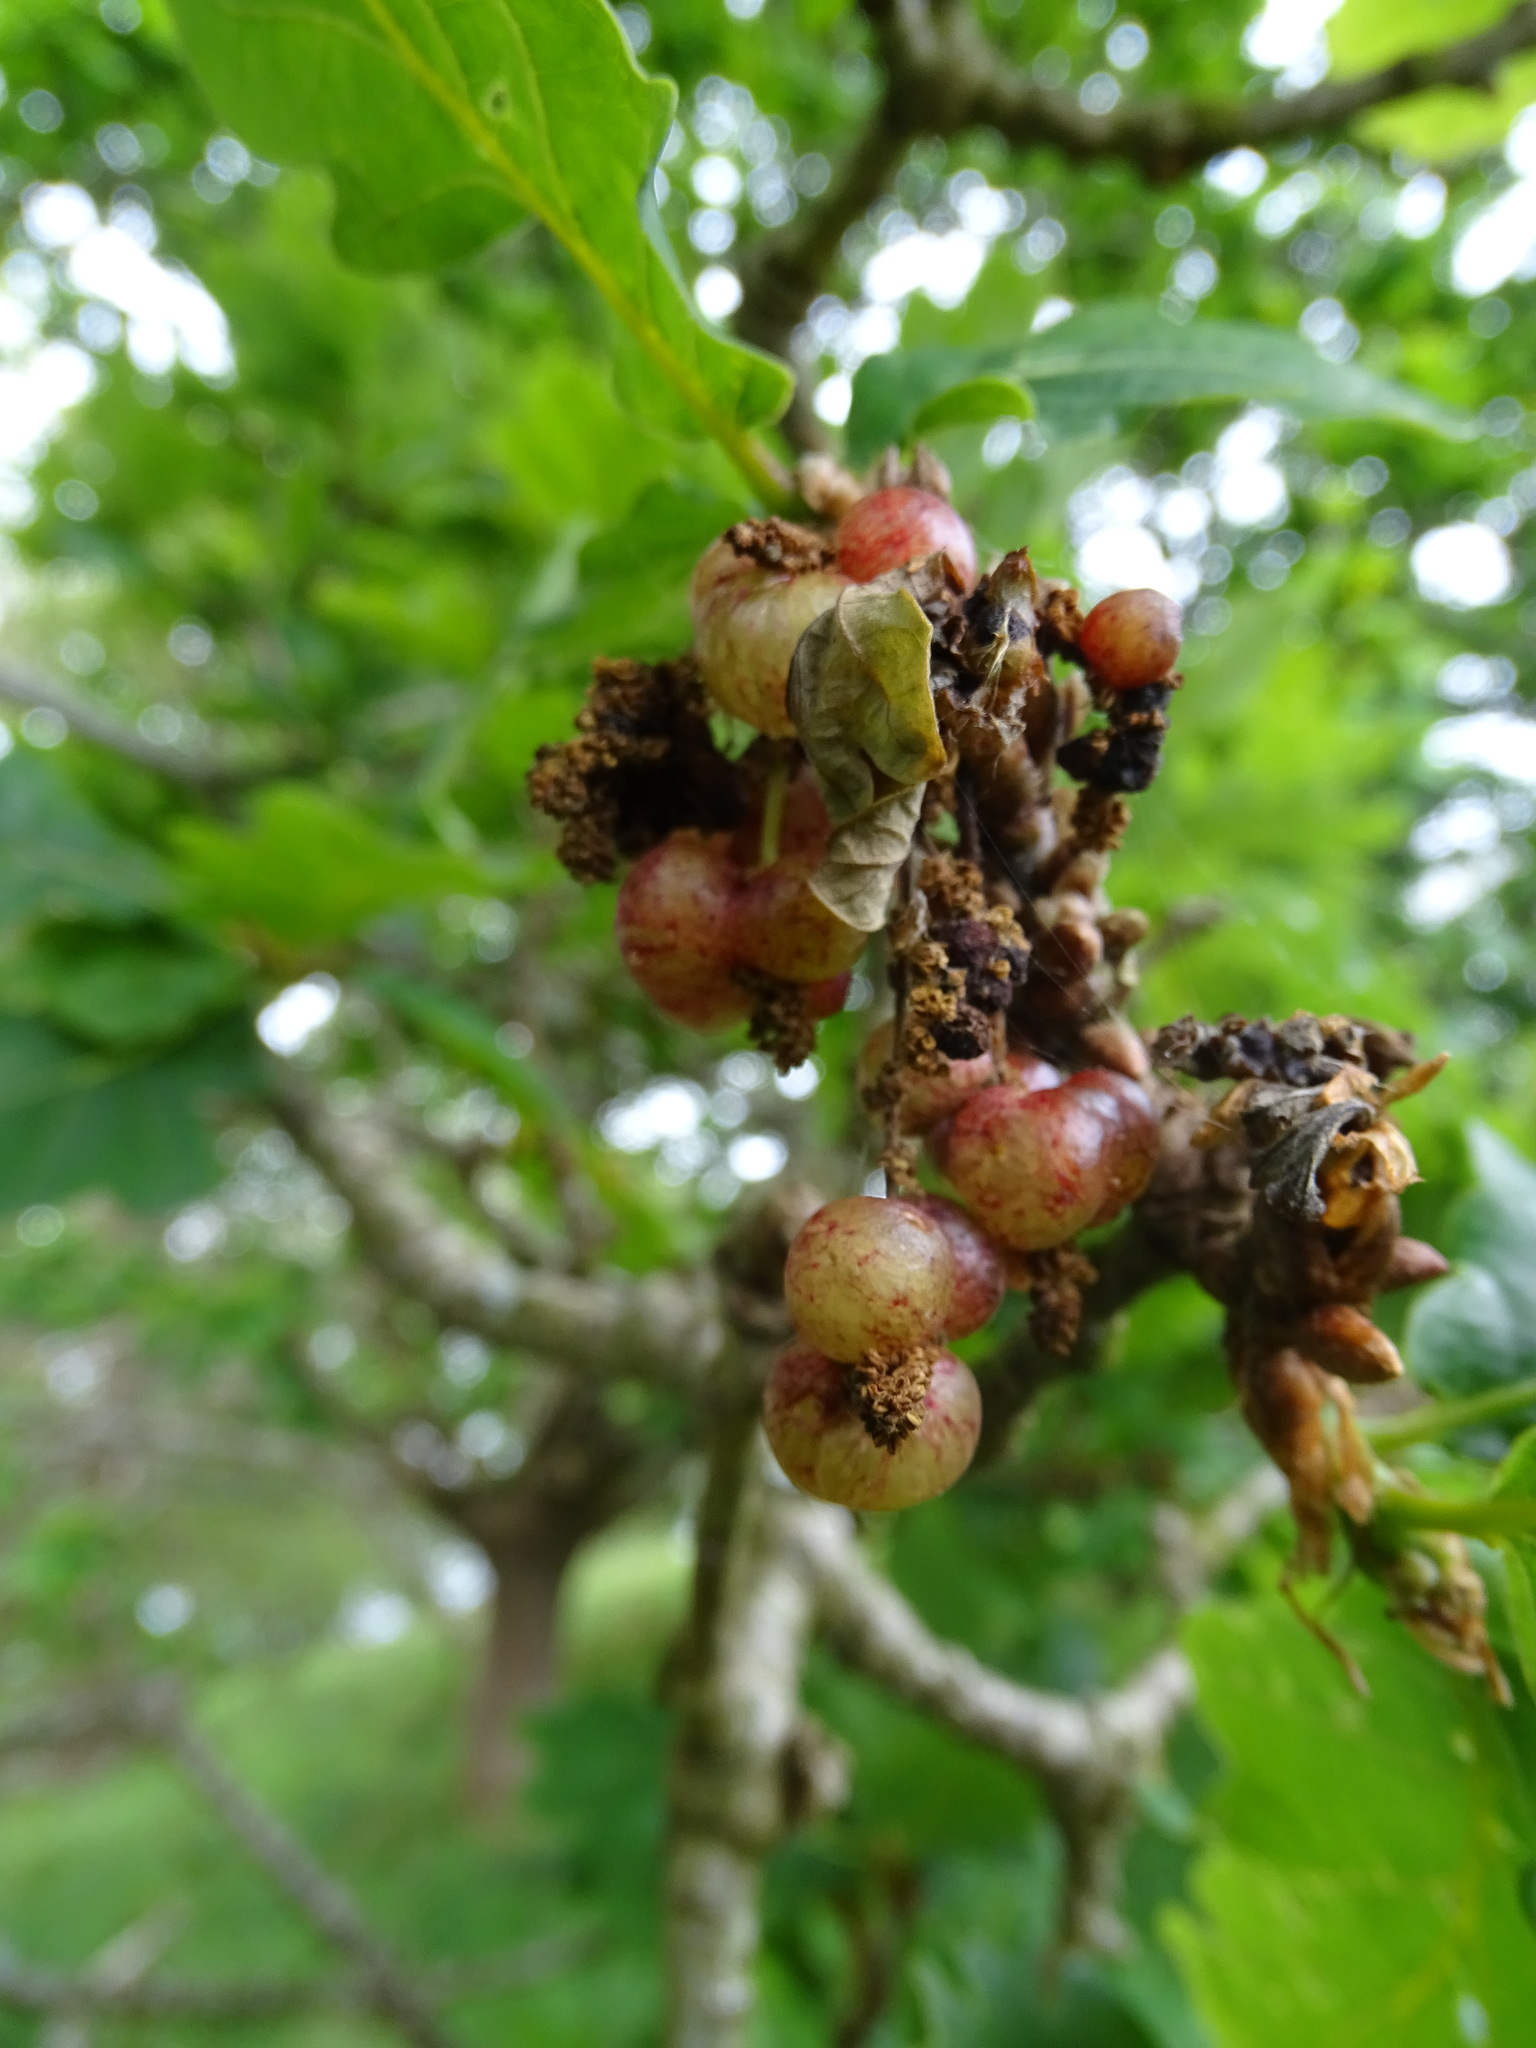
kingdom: Animalia
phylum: Arthropoda
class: Insecta
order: Hymenoptera
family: Cynipidae
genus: Neuroterus
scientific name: Neuroterus quercusbaccarum
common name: Common spangle gall
